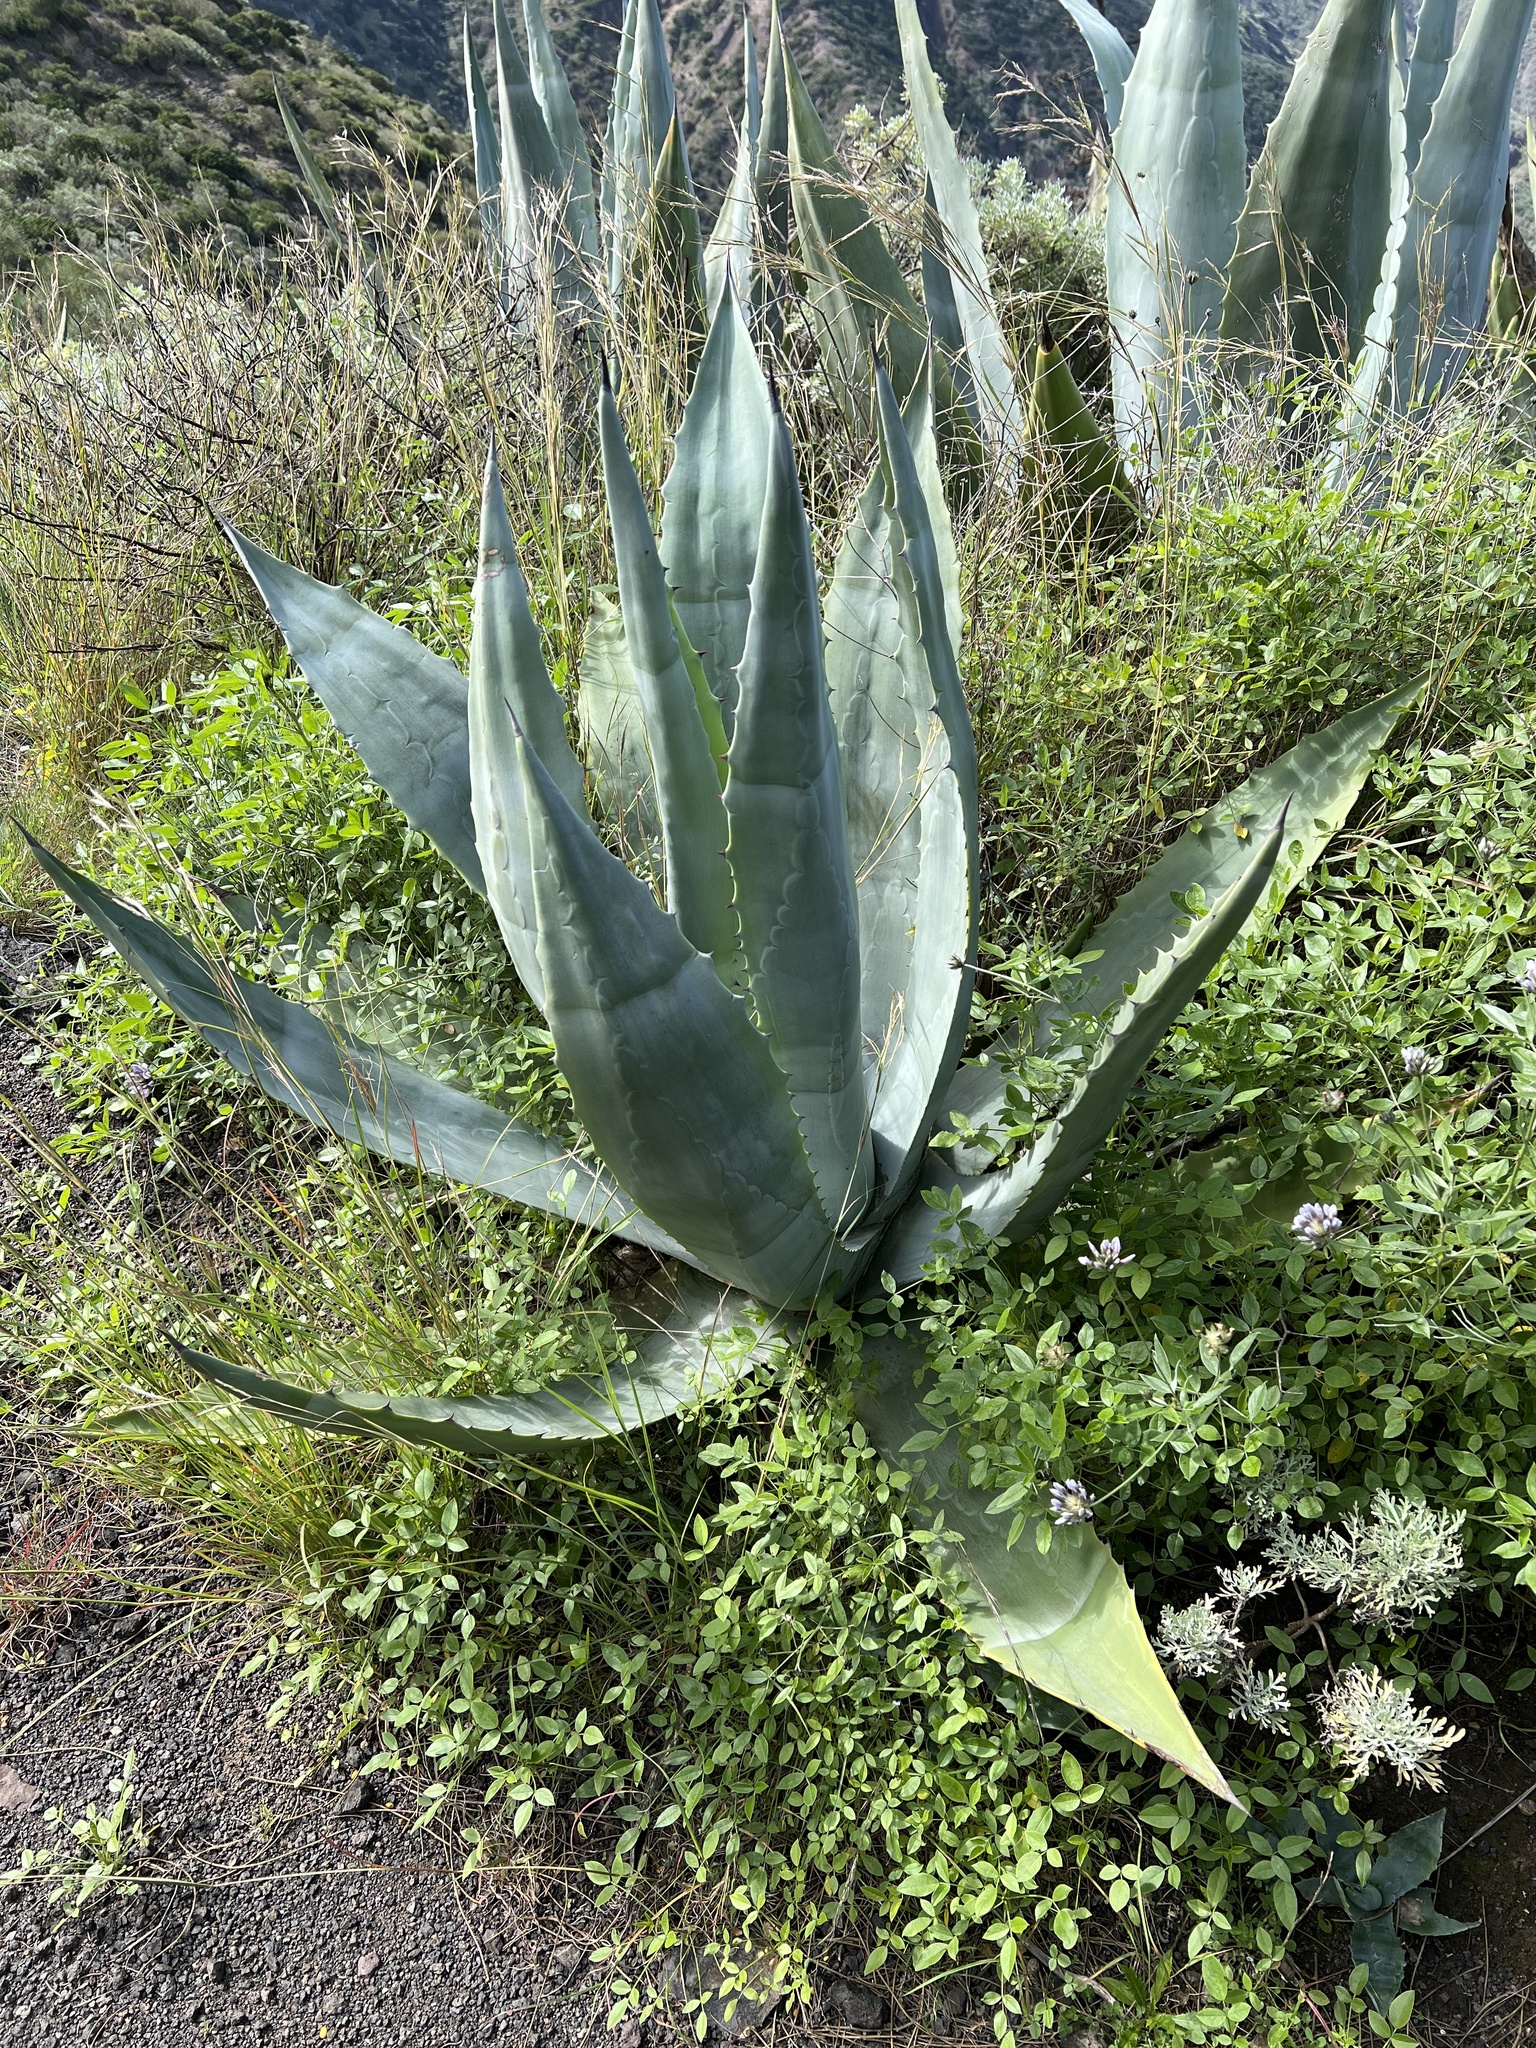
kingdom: Plantae
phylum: Tracheophyta
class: Liliopsida
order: Asparagales
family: Asparagaceae
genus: Agave
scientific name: Agave americana
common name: Centuryplant
